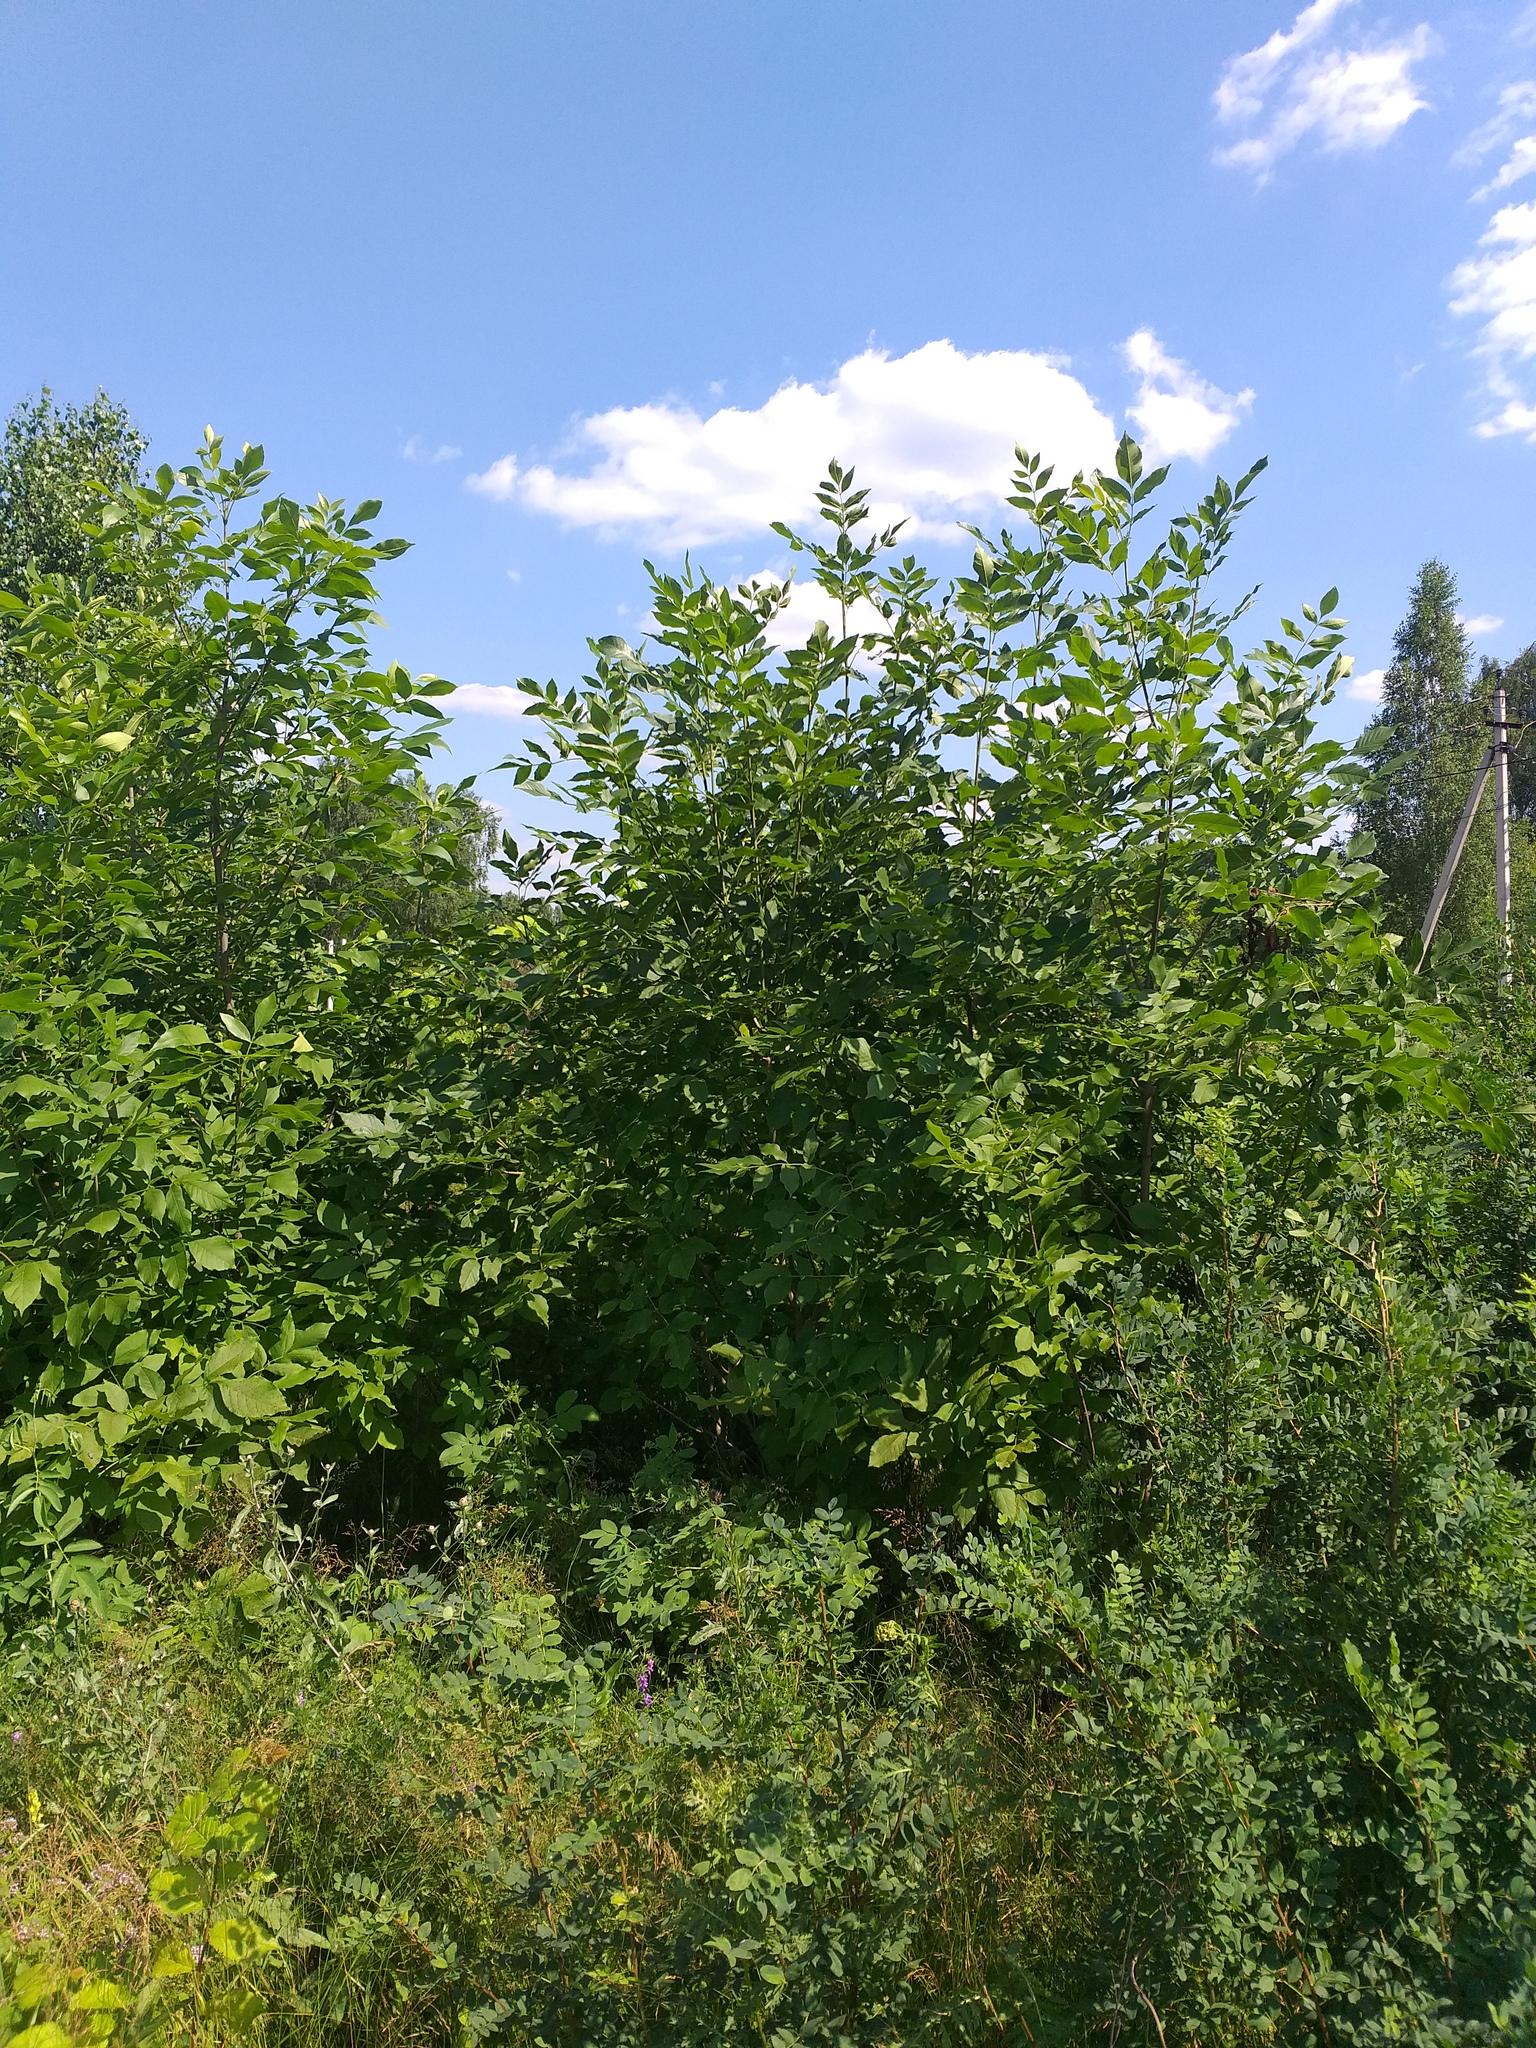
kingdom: Plantae
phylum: Tracheophyta
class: Magnoliopsida
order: Lamiales
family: Oleaceae
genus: Fraxinus
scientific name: Fraxinus pennsylvanica
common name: Green ash
